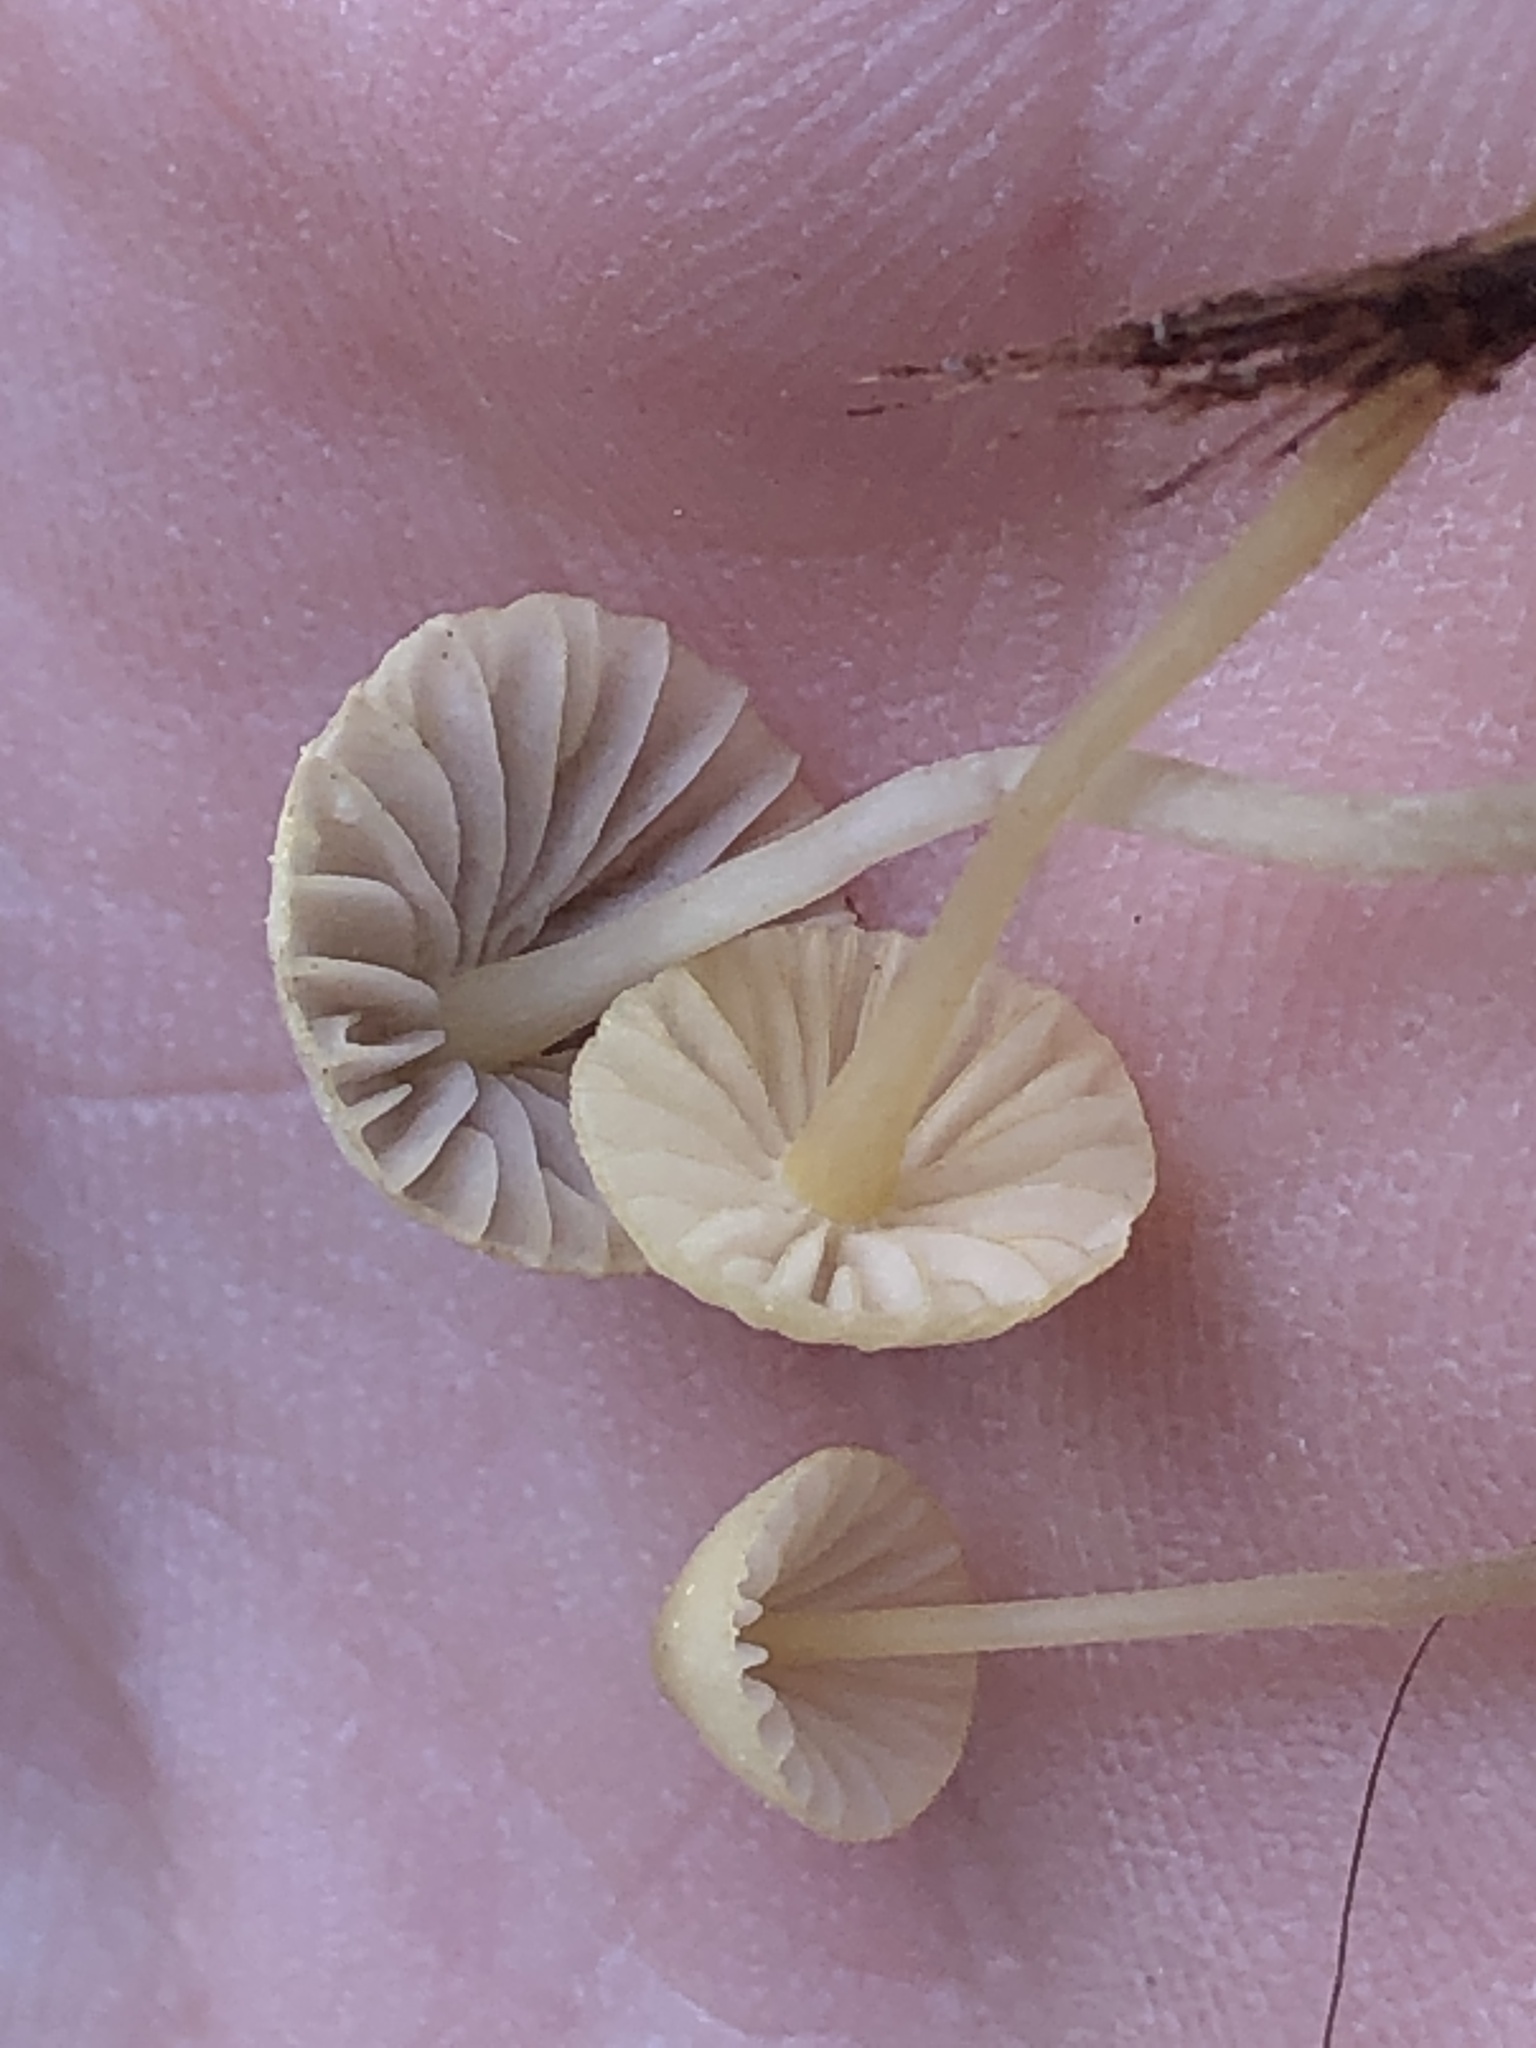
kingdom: Fungi
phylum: Basidiomycota
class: Agaricomycetes
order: Agaricales
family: Mycenaceae
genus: Mycena
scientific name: Mycena citrinomarginata
